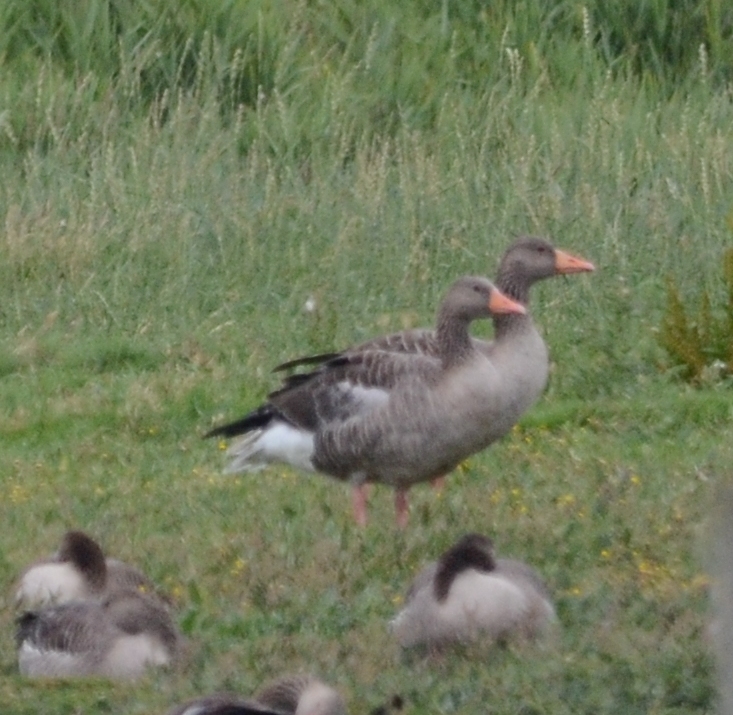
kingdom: Animalia
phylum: Chordata
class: Aves
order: Anseriformes
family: Anatidae
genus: Anser
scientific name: Anser anser
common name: Greylag goose
